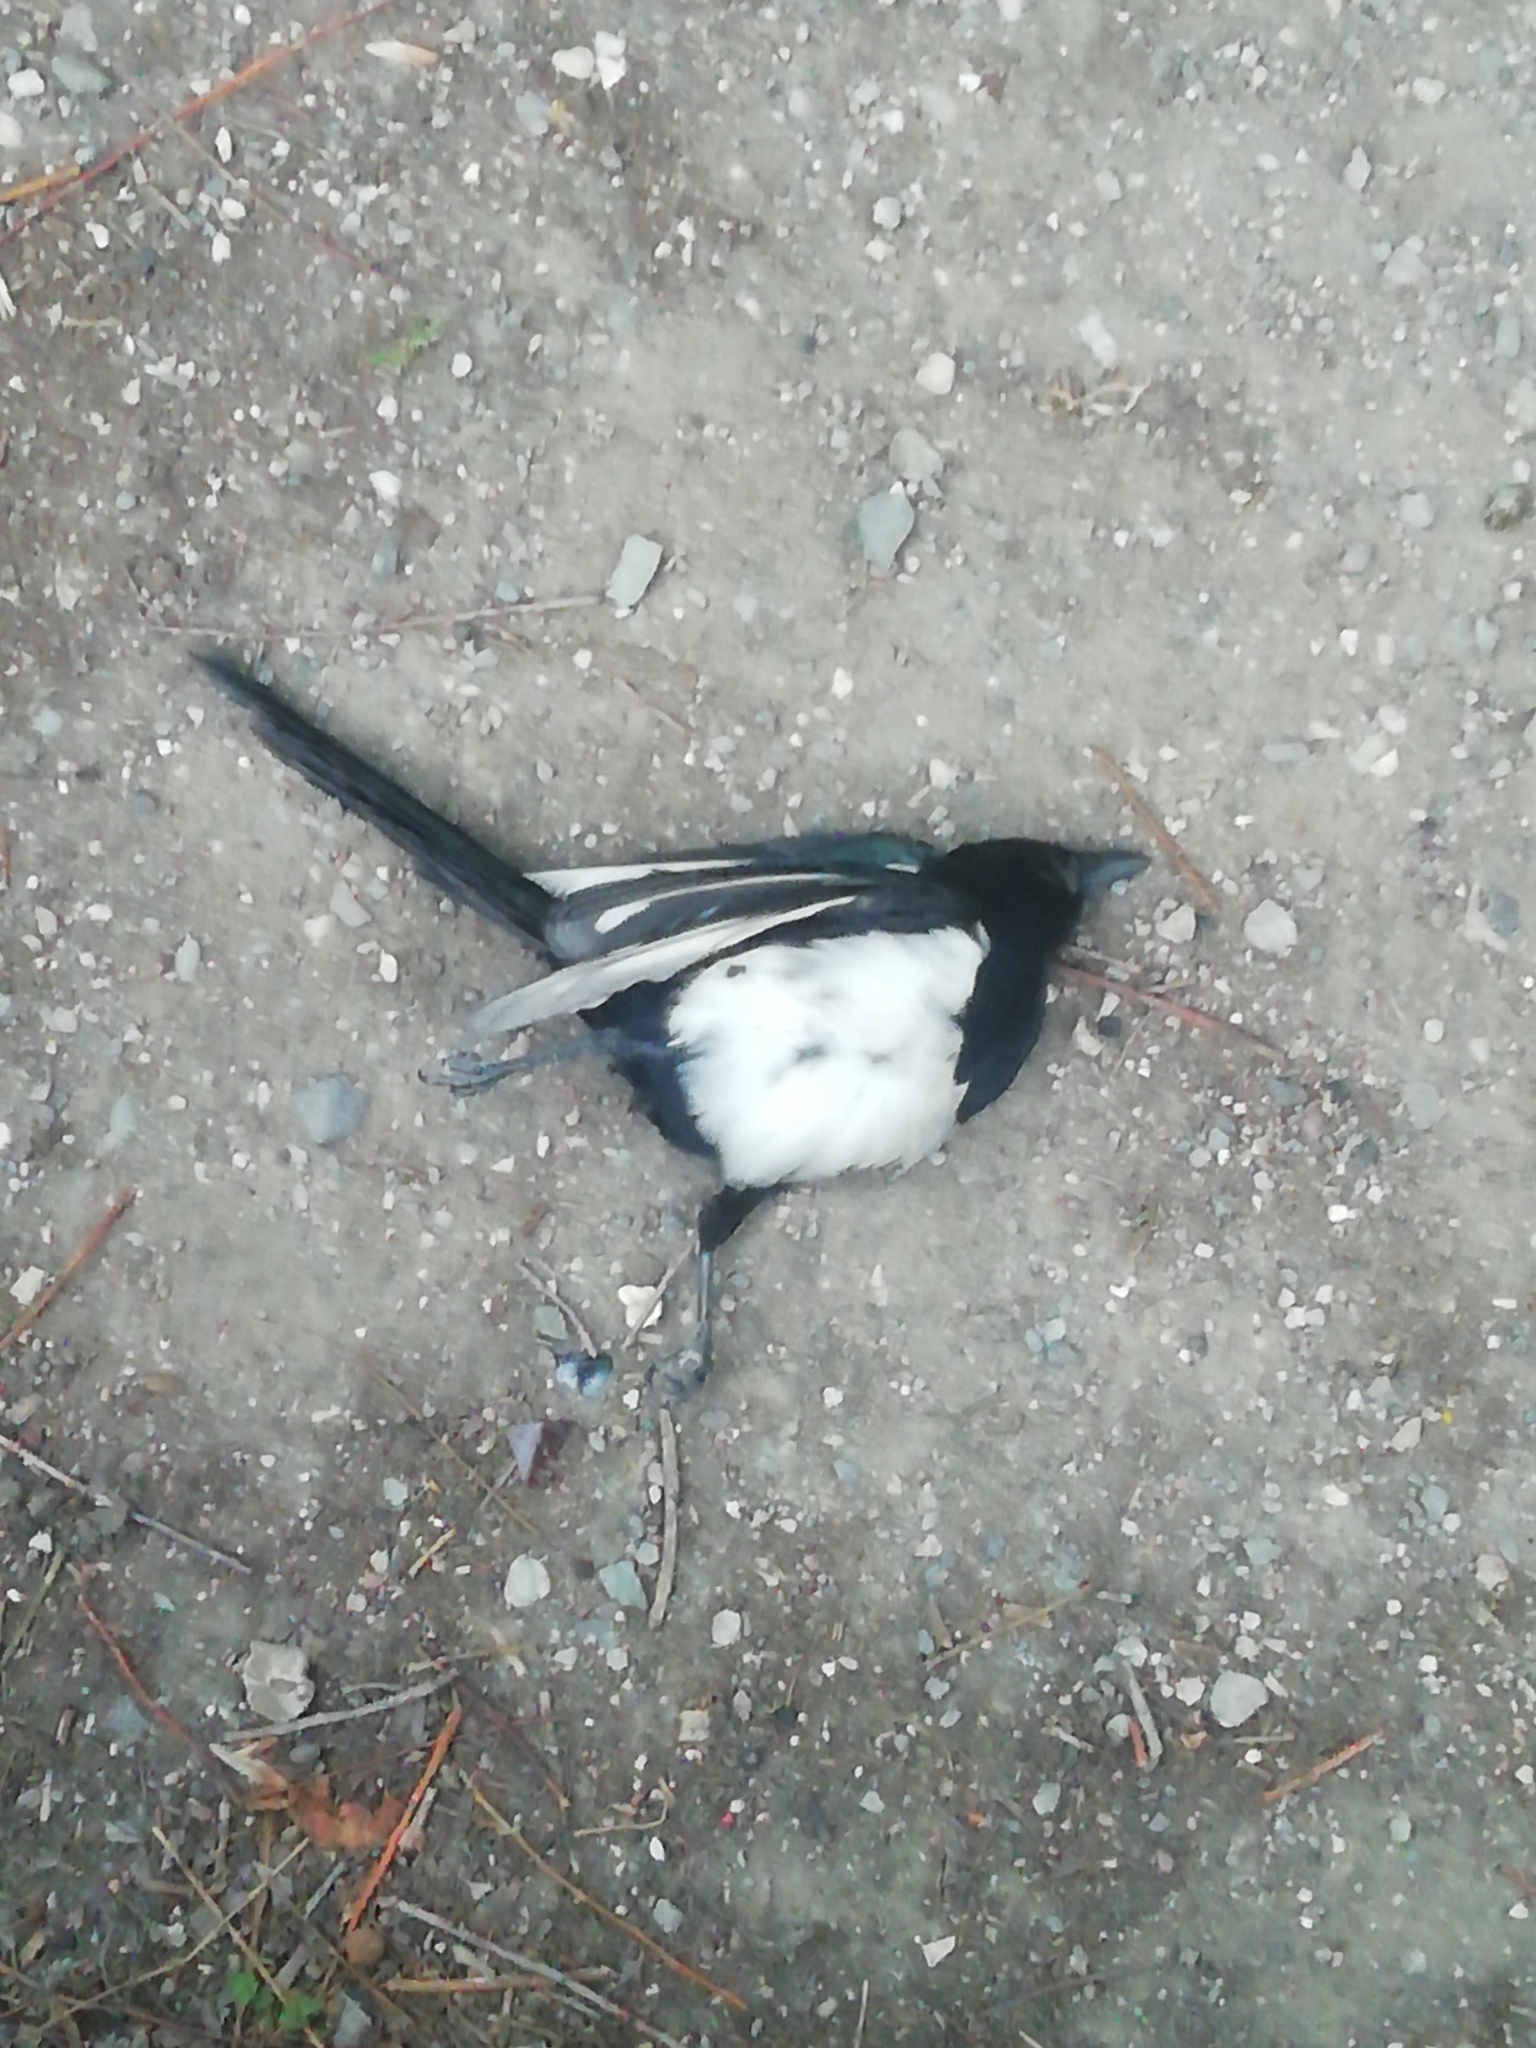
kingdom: Animalia
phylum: Chordata
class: Aves
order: Passeriformes
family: Corvidae
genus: Pica
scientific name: Pica pica
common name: Eurasian magpie
